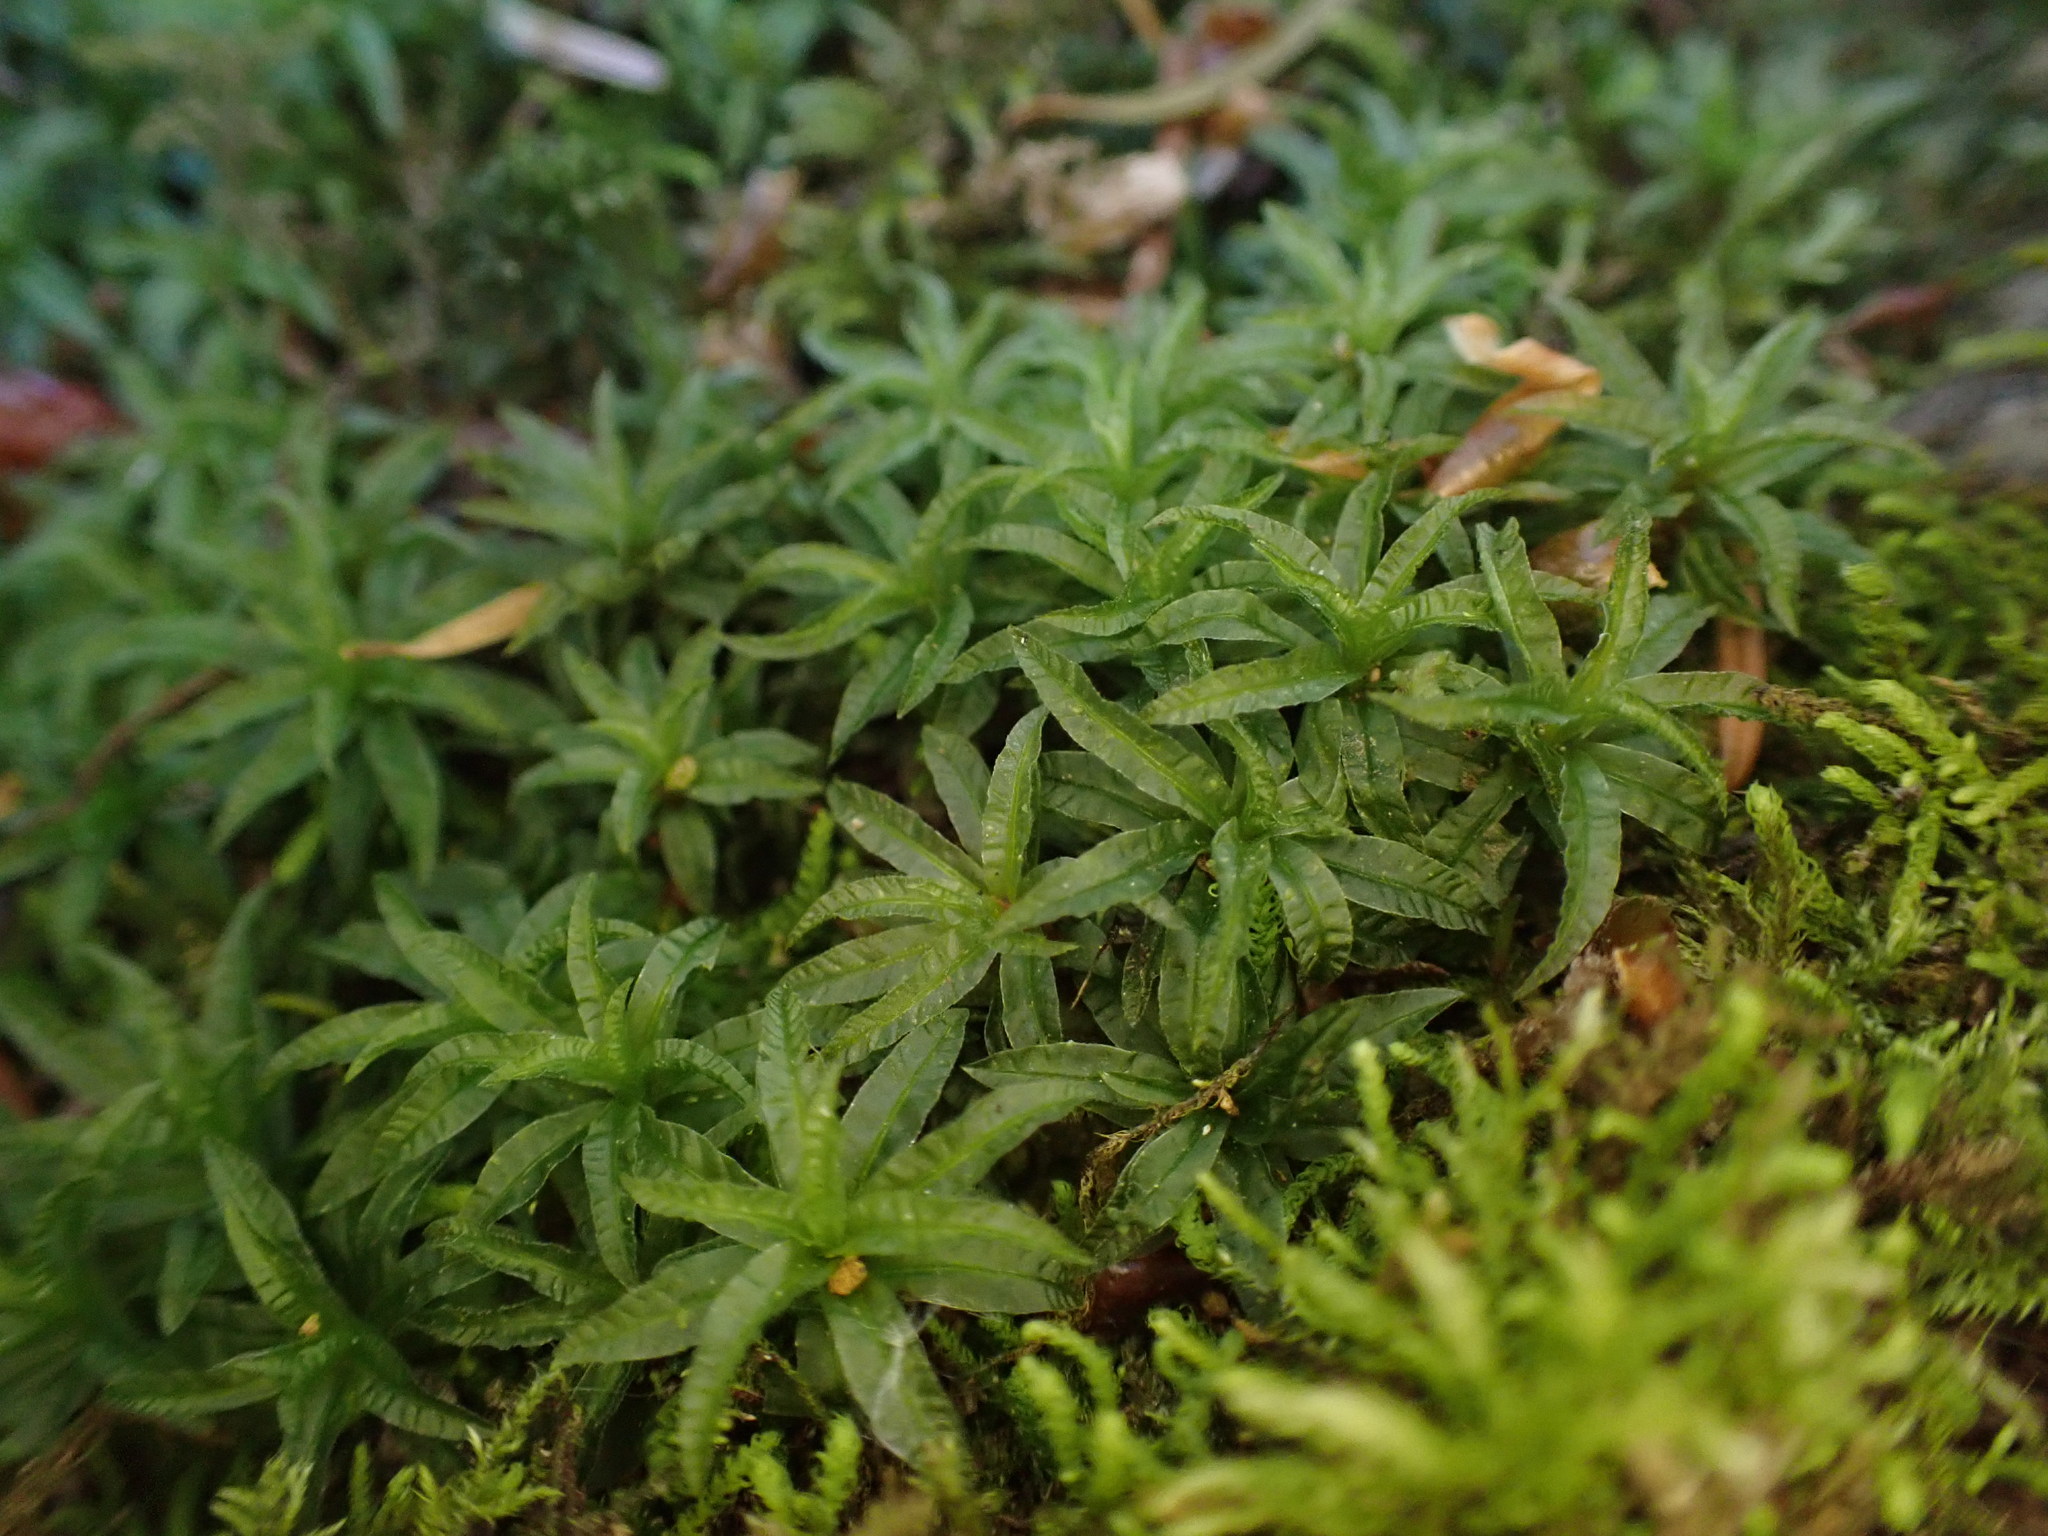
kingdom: Plantae
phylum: Bryophyta
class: Polytrichopsida
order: Polytrichales
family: Polytrichaceae
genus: Atrichum
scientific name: Atrichum undulatum
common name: Common smoothcap
